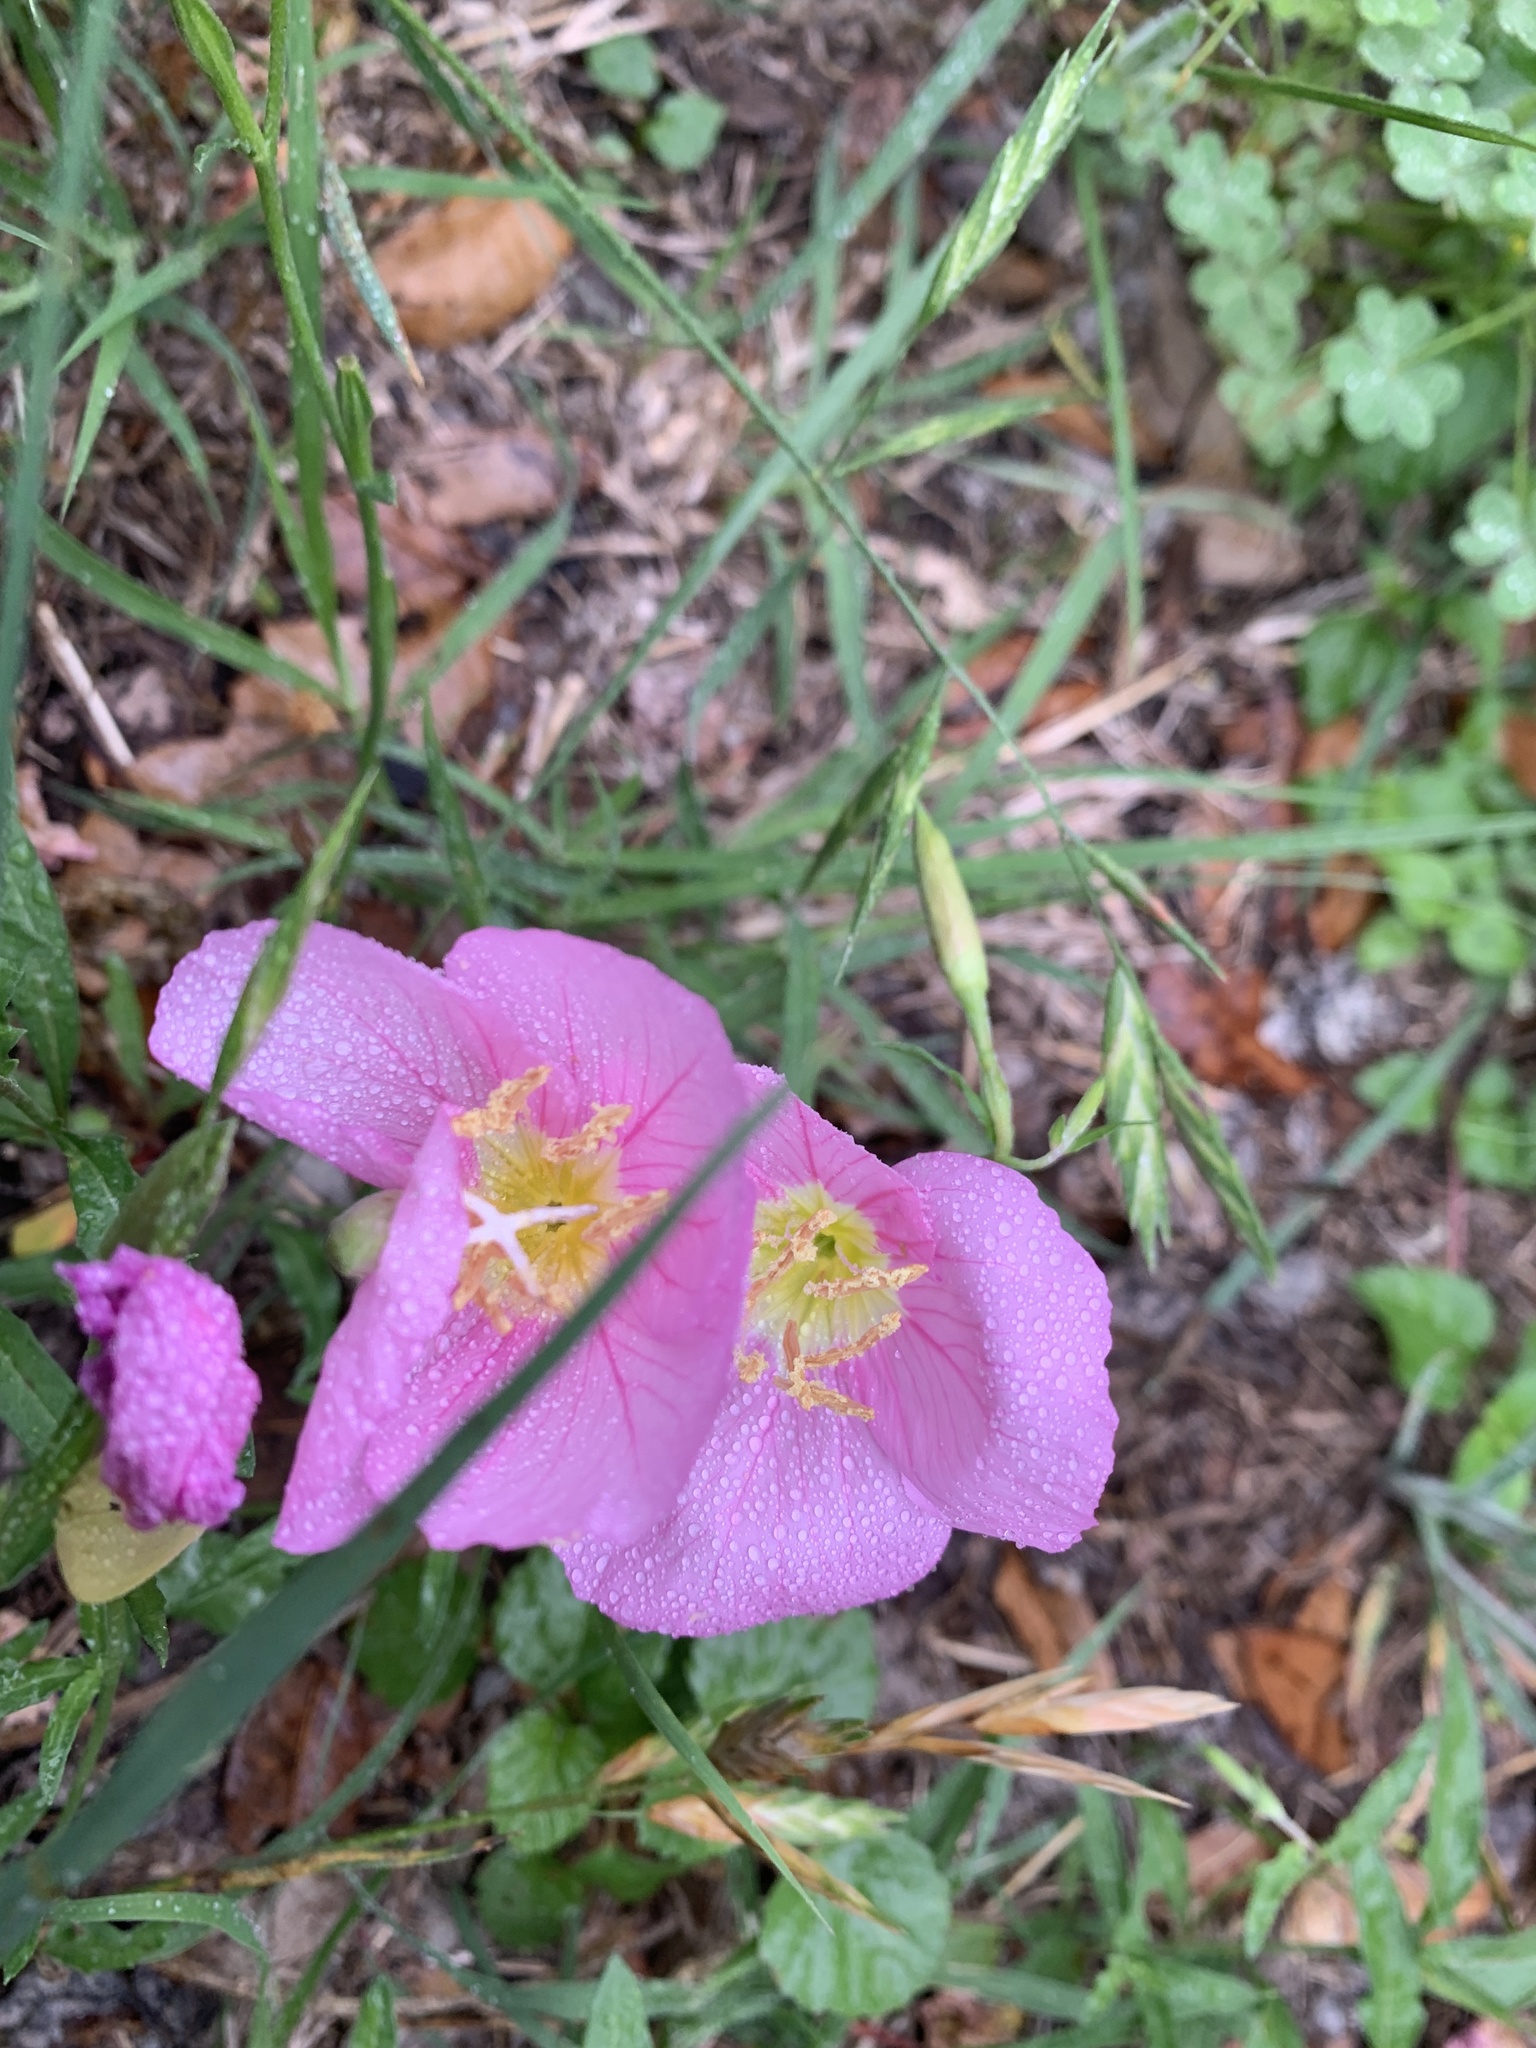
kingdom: Plantae
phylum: Tracheophyta
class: Magnoliopsida
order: Myrtales
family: Onagraceae
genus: Oenothera
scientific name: Oenothera speciosa
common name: White evening-primrose
